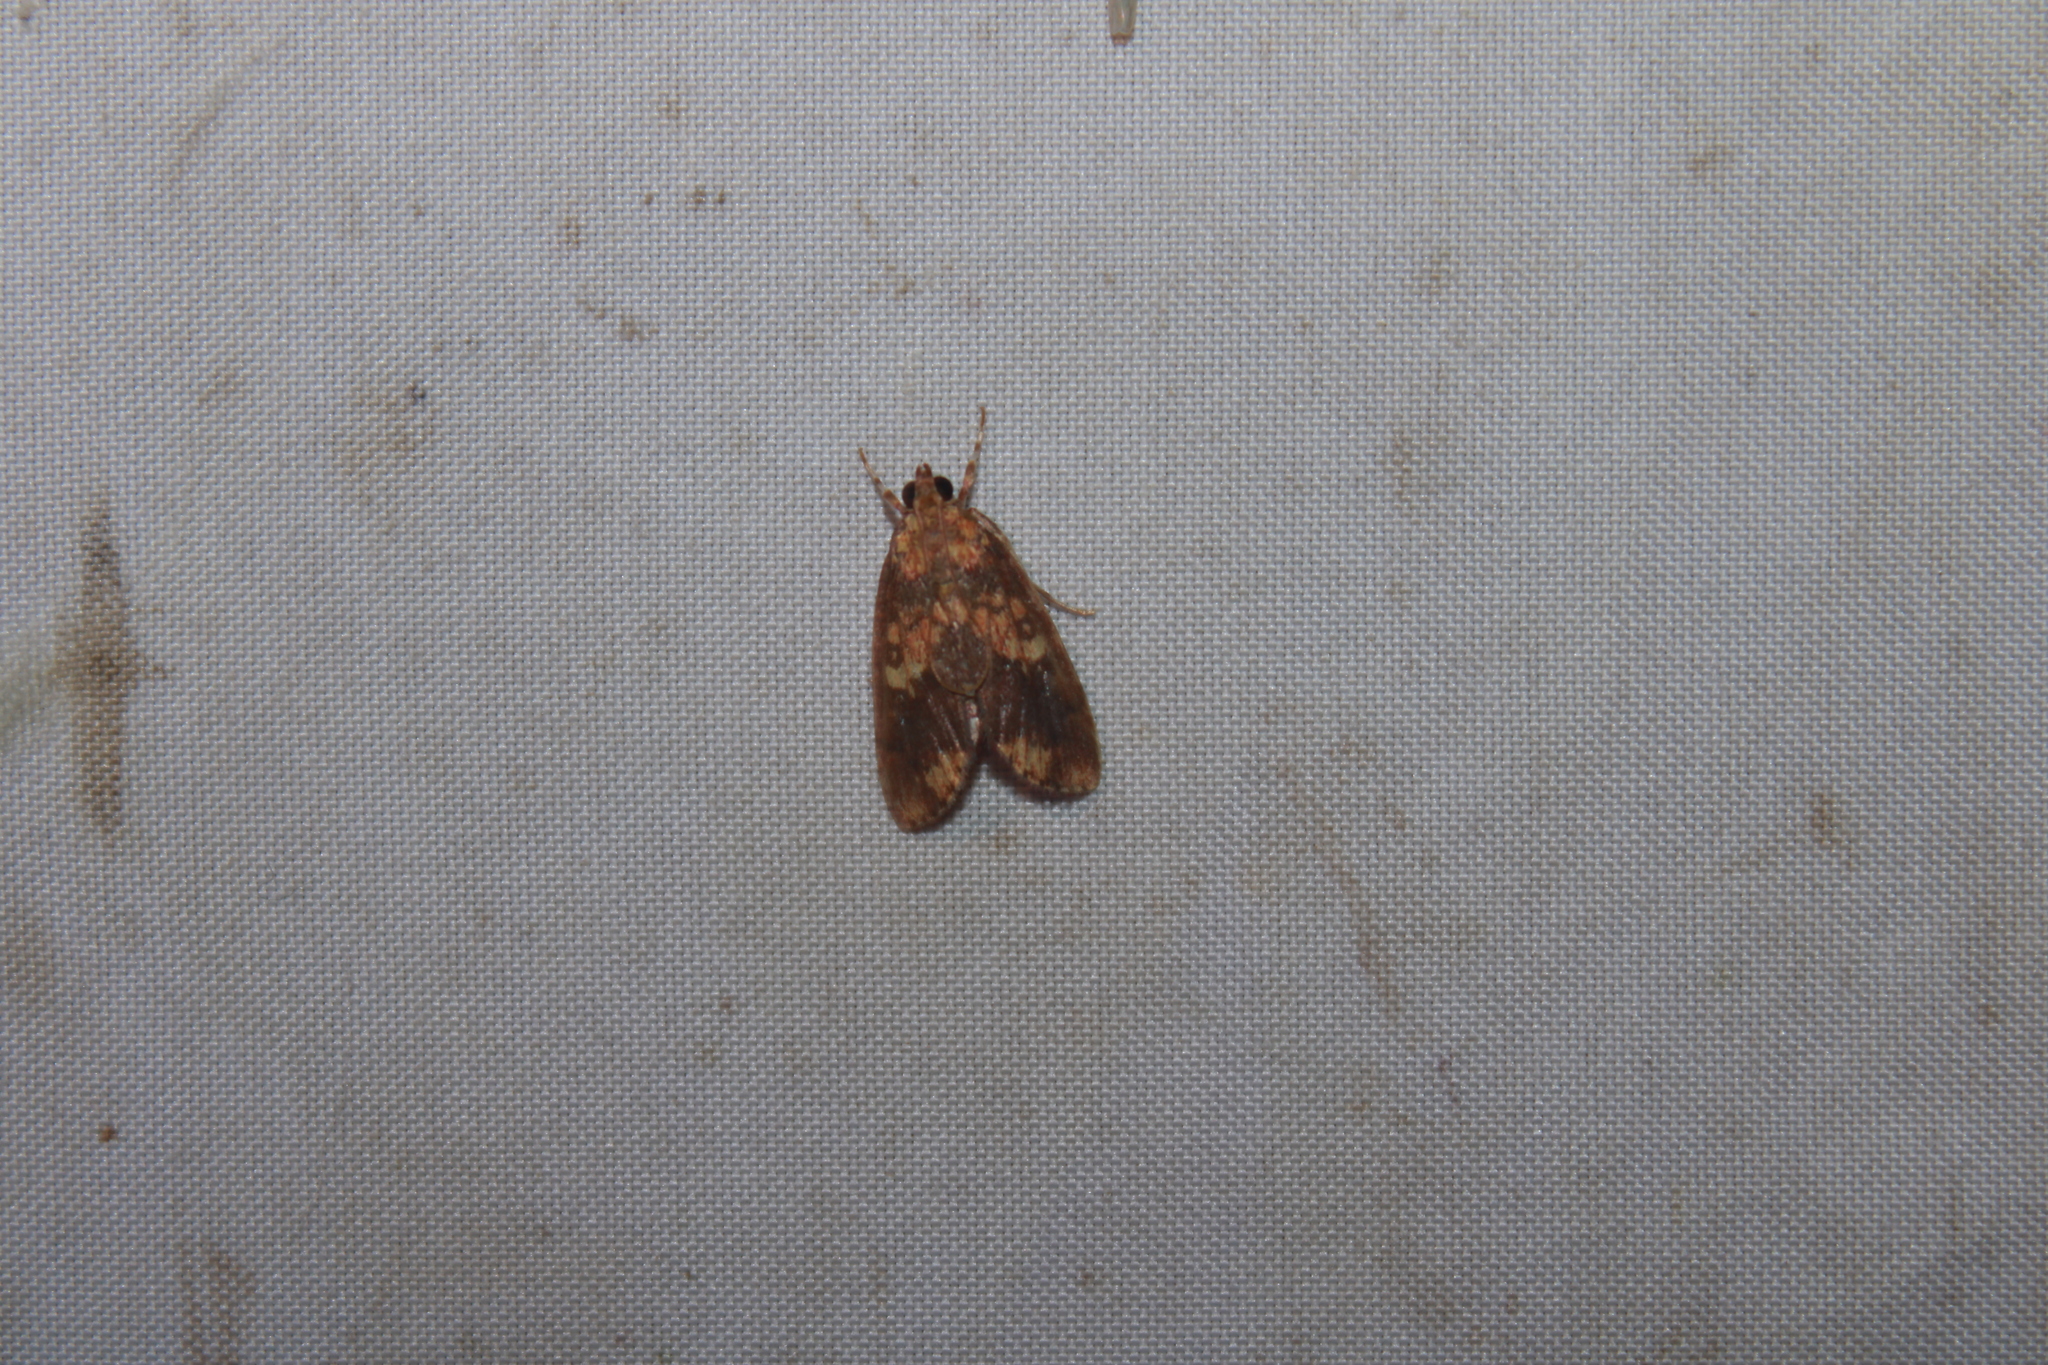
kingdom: Animalia
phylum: Arthropoda
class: Insecta
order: Lepidoptera
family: Crambidae
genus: Mimophobetron
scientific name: Mimophobetron pyropsalis
